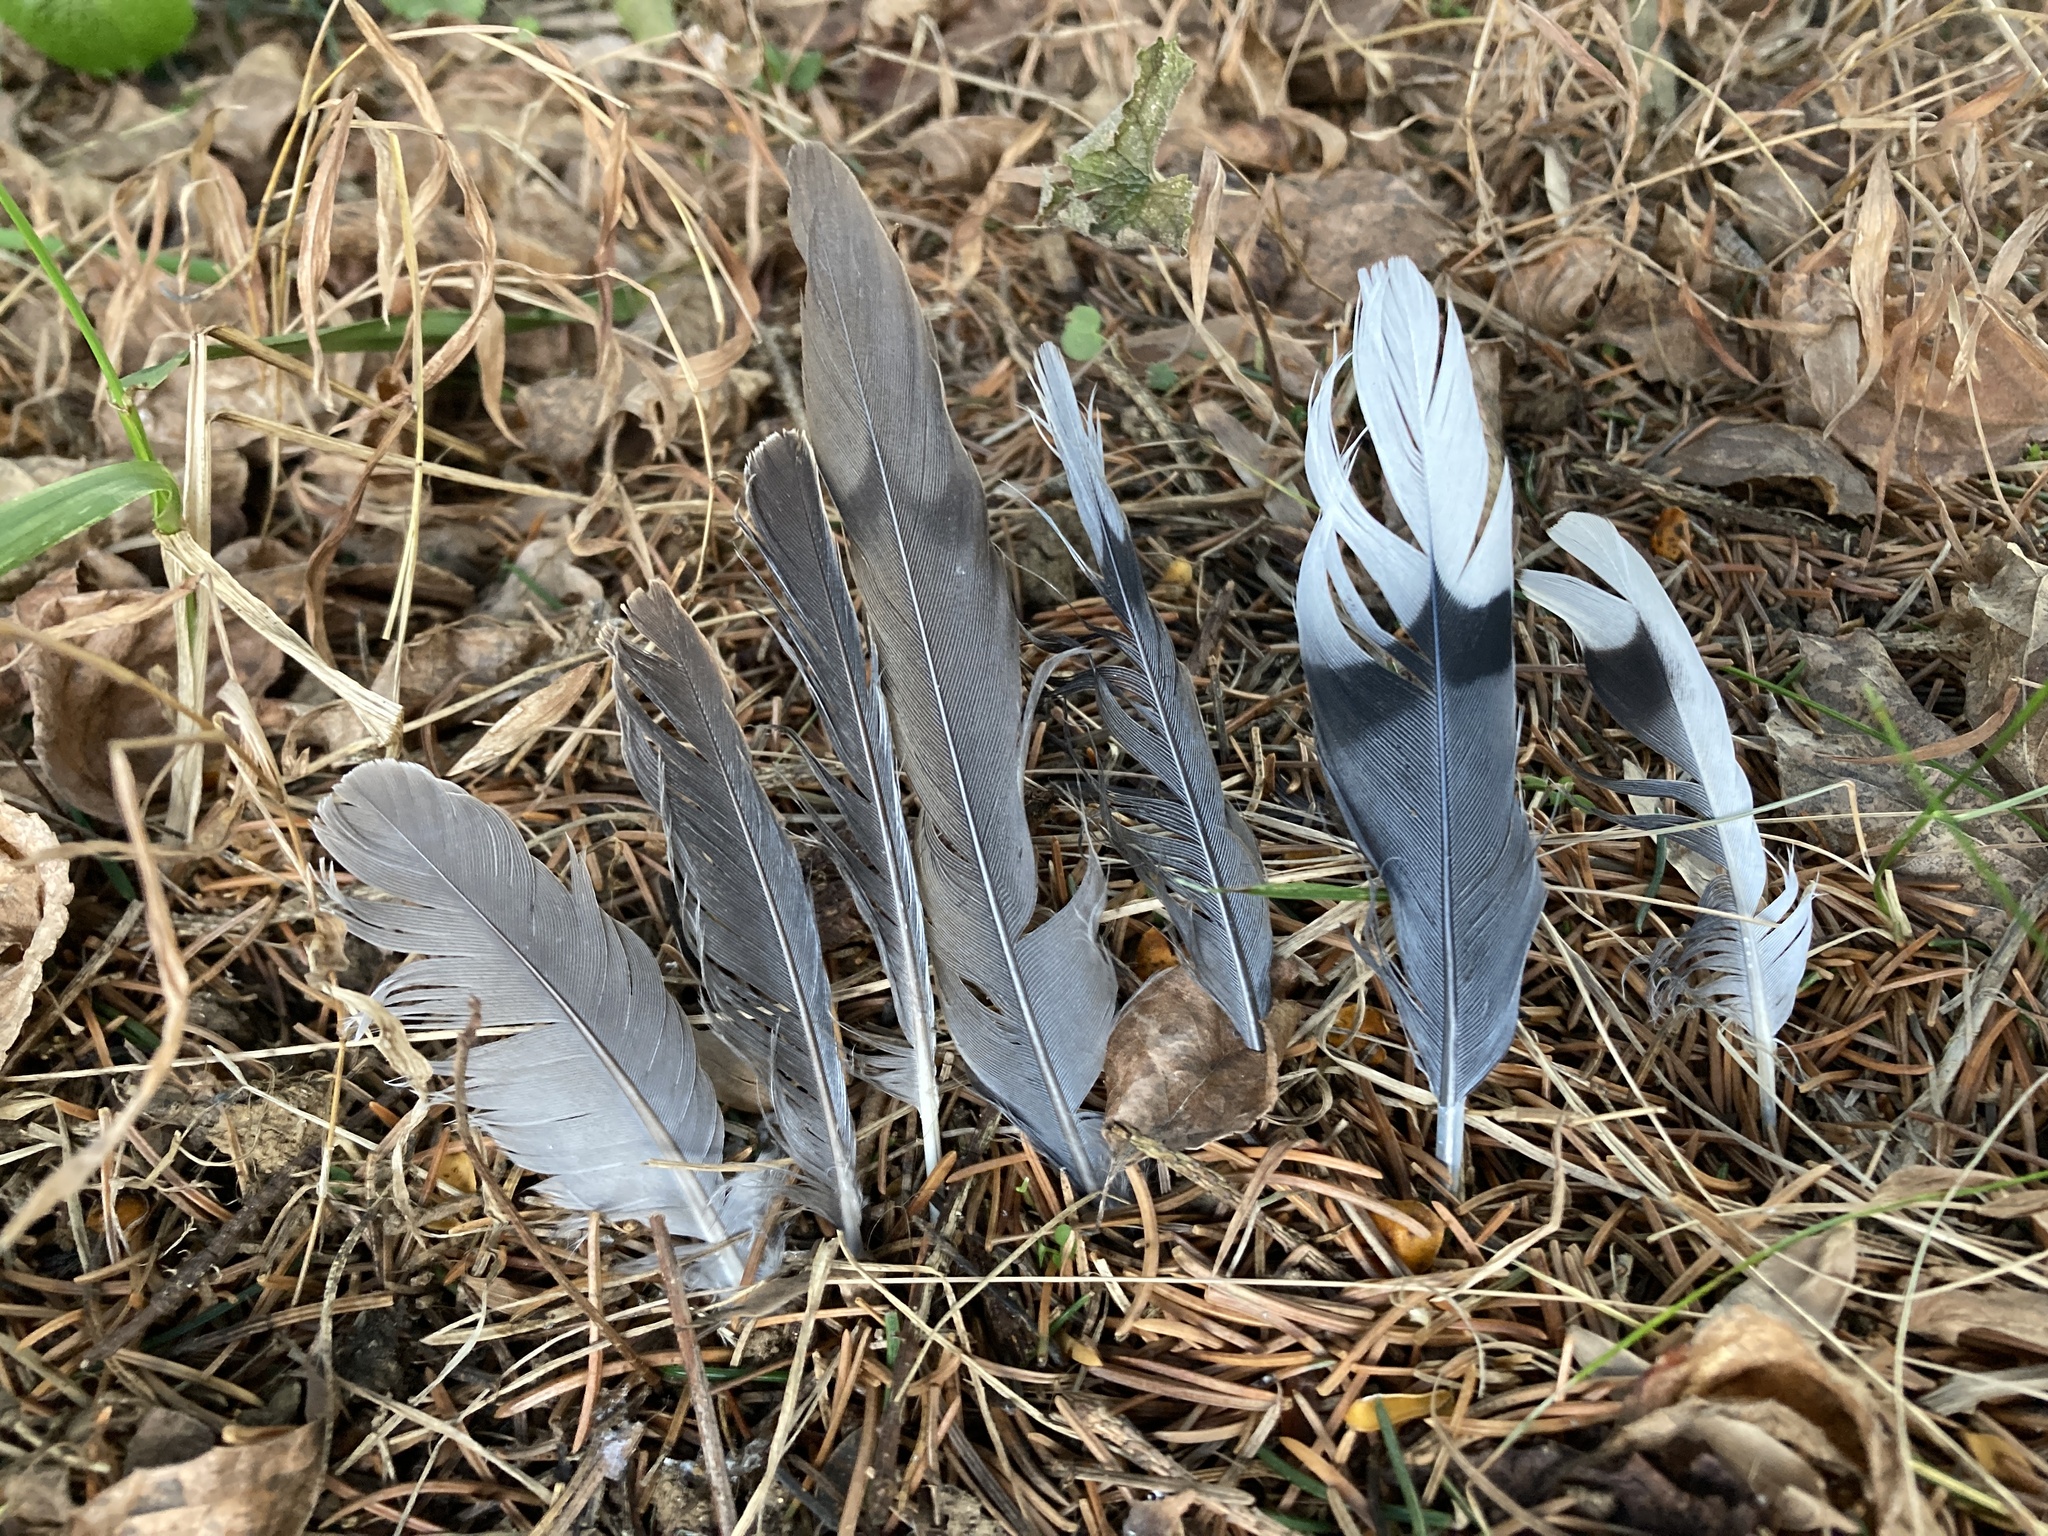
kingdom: Animalia
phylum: Chordata
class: Aves
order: Columbiformes
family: Columbidae
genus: Zenaida
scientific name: Zenaida macroura
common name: Mourning dove
